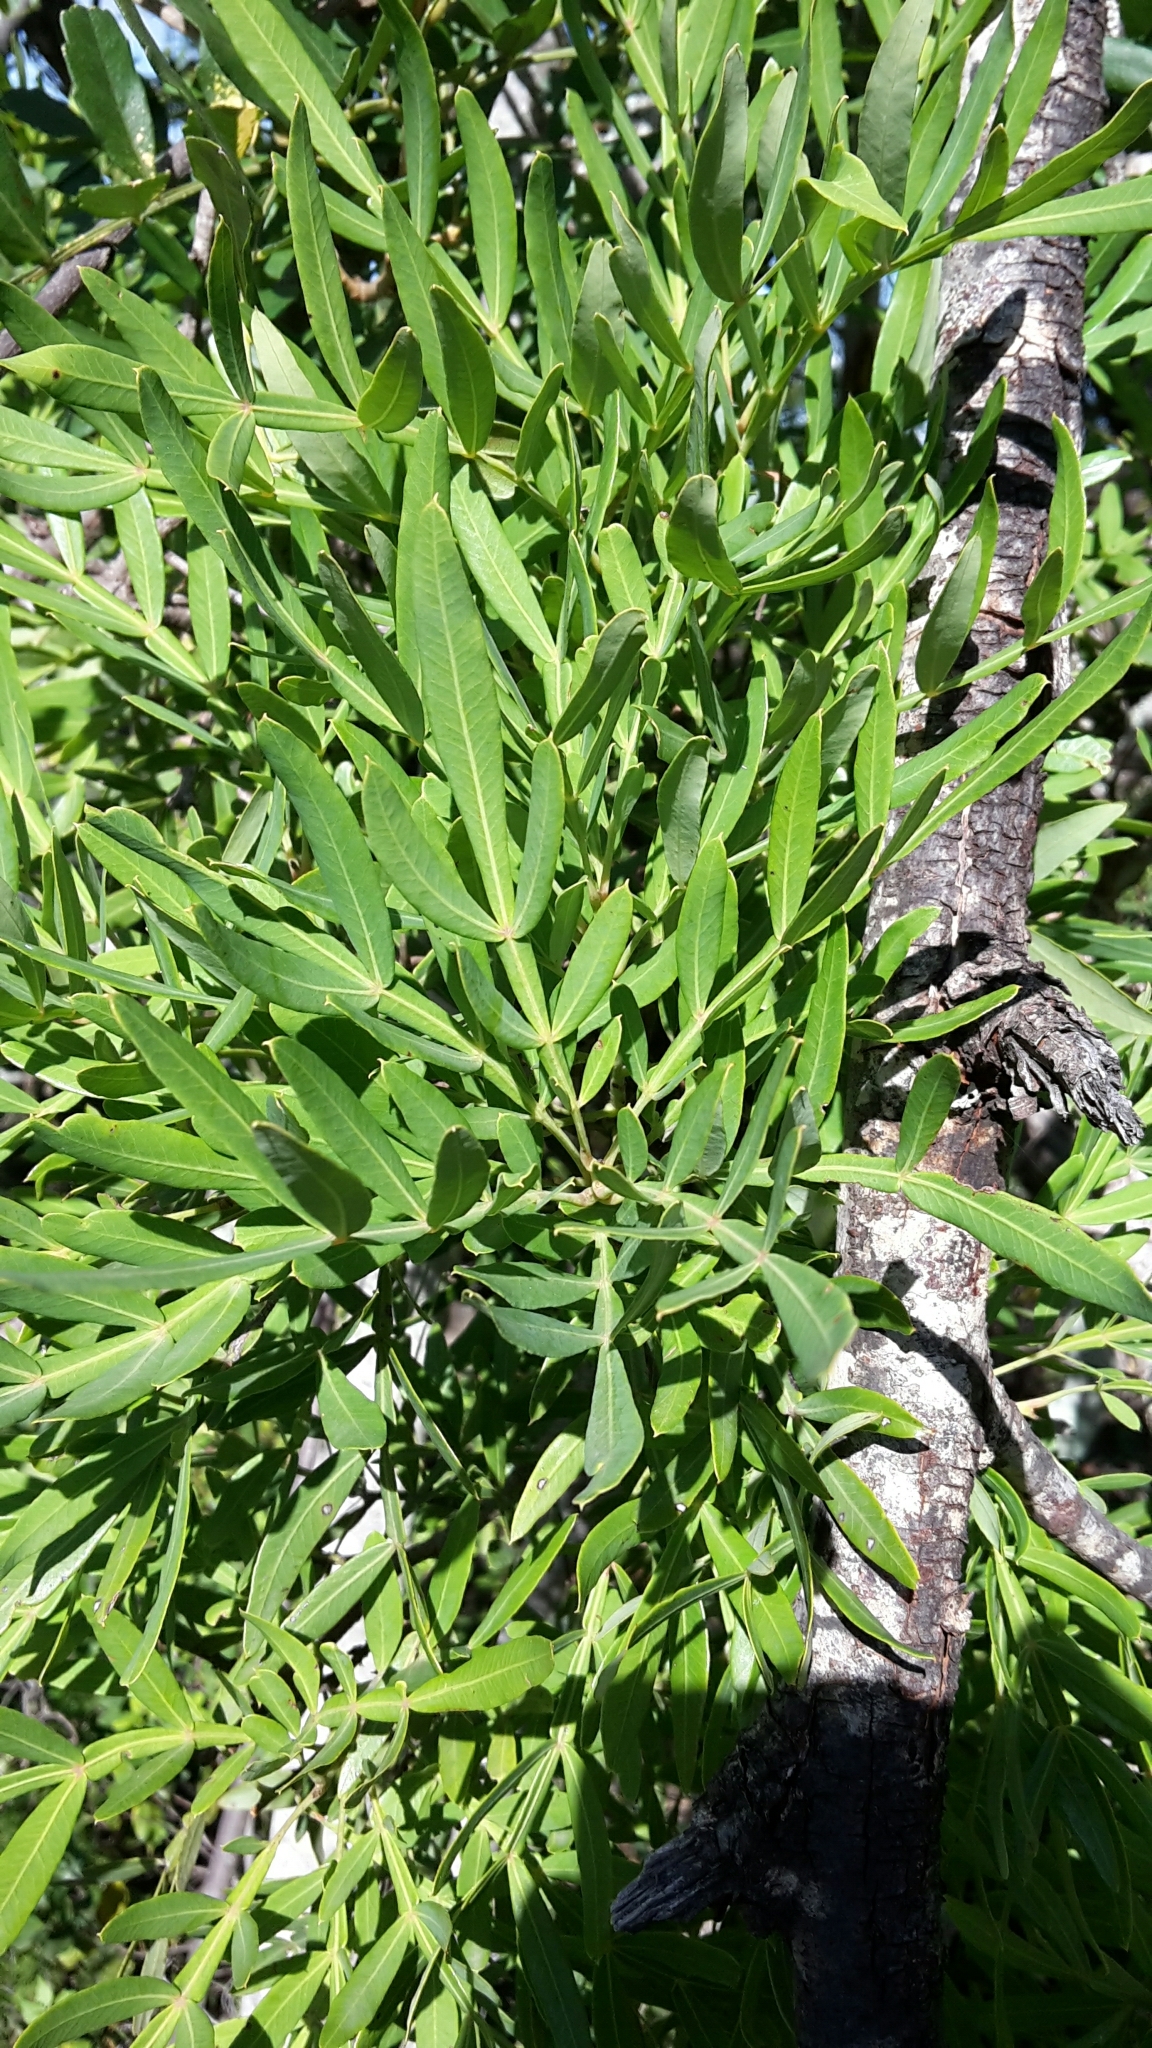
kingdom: Plantae
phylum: Tracheophyta
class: Magnoliopsida
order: Sapindales
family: Anacardiaceae
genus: Loxostylis
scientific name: Loxostylis alata
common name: Wild peppertree
